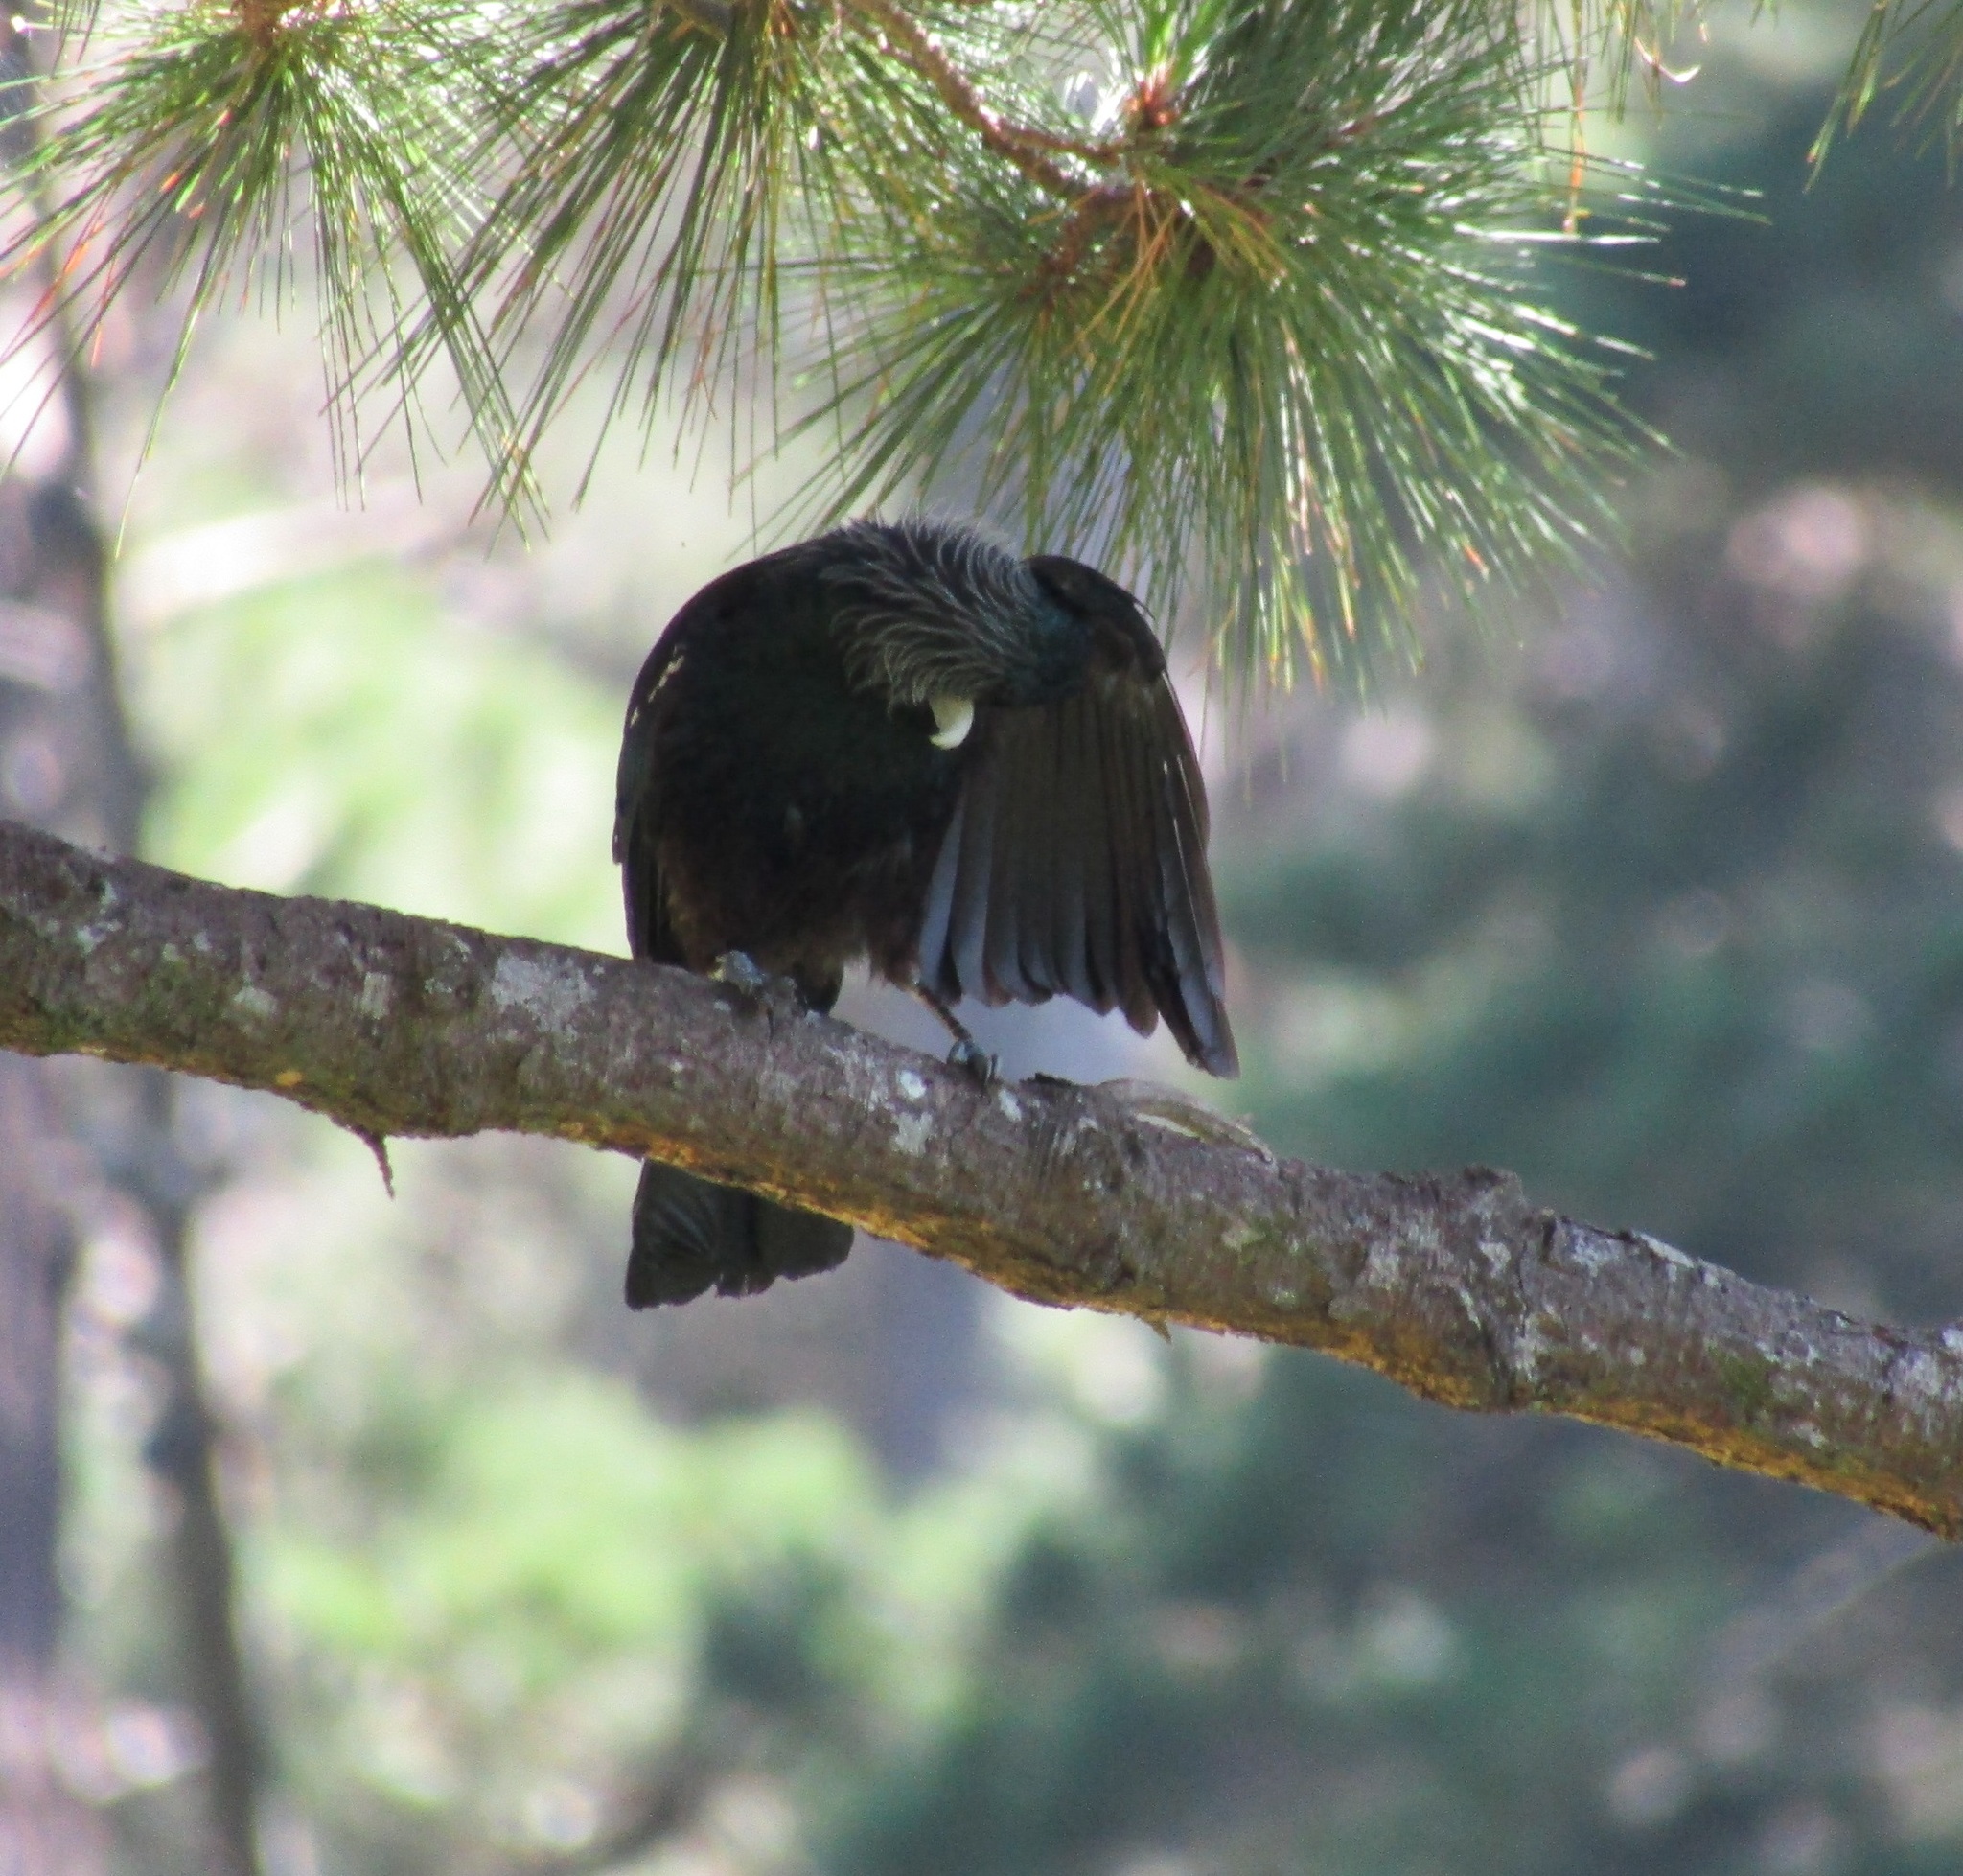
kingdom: Animalia
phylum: Chordata
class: Aves
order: Passeriformes
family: Meliphagidae
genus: Prosthemadera
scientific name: Prosthemadera novaeseelandiae
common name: Tui
